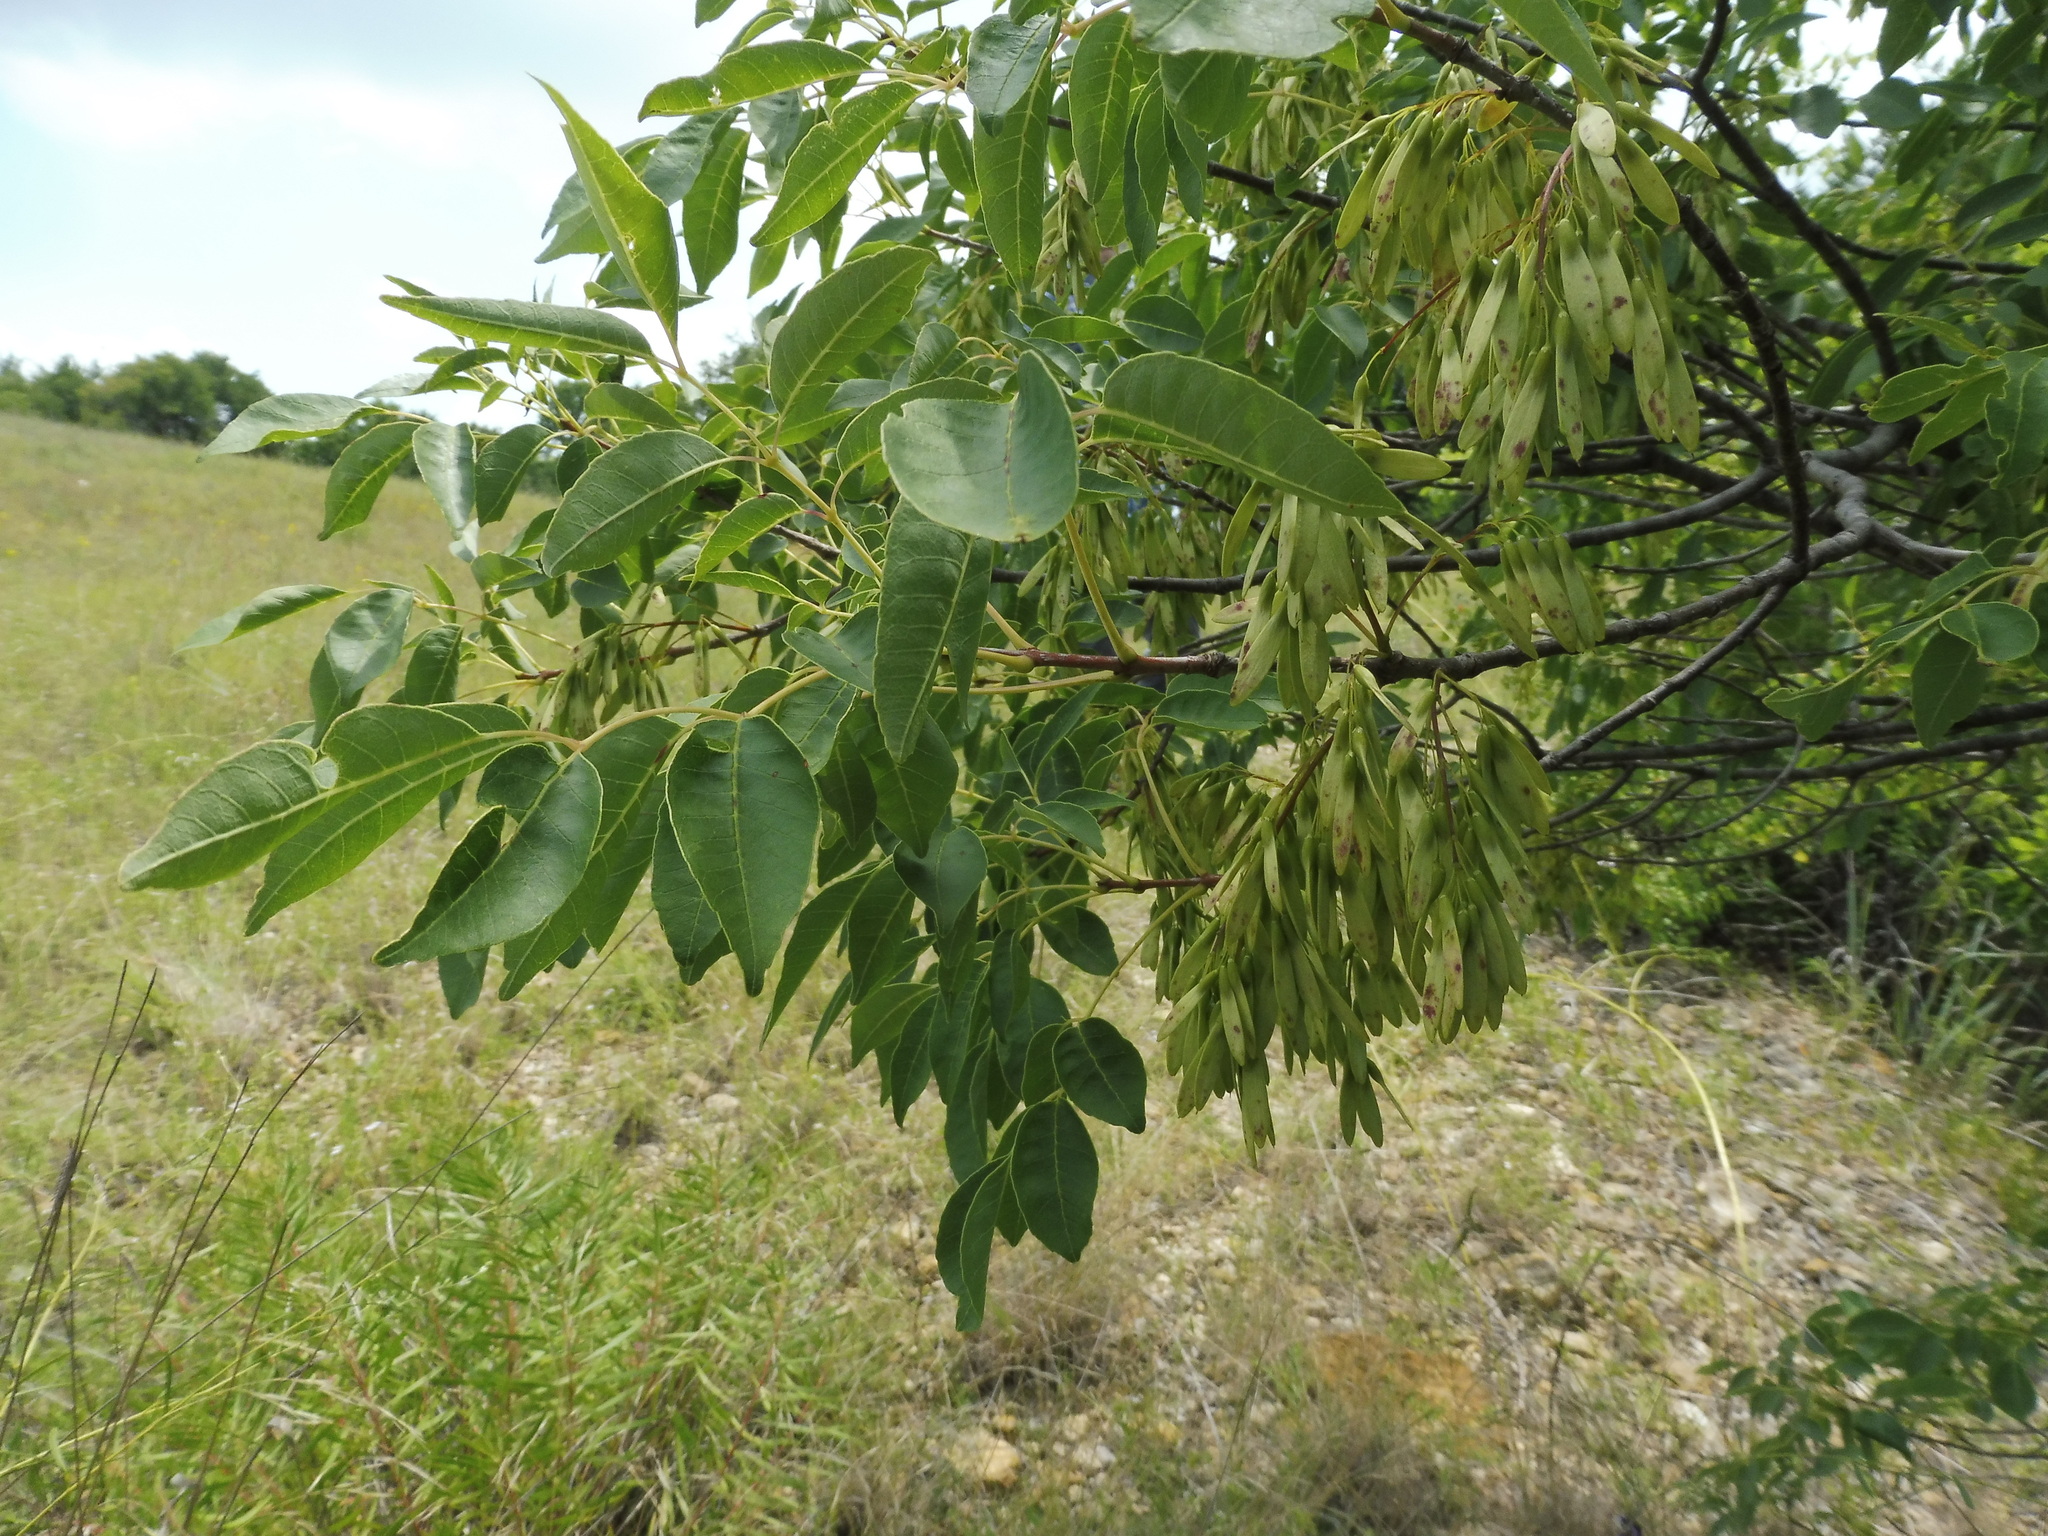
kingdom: Plantae
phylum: Tracheophyta
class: Magnoliopsida
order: Lamiales
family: Oleaceae
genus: Fraxinus
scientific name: Fraxinus albicans
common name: Texas ash
